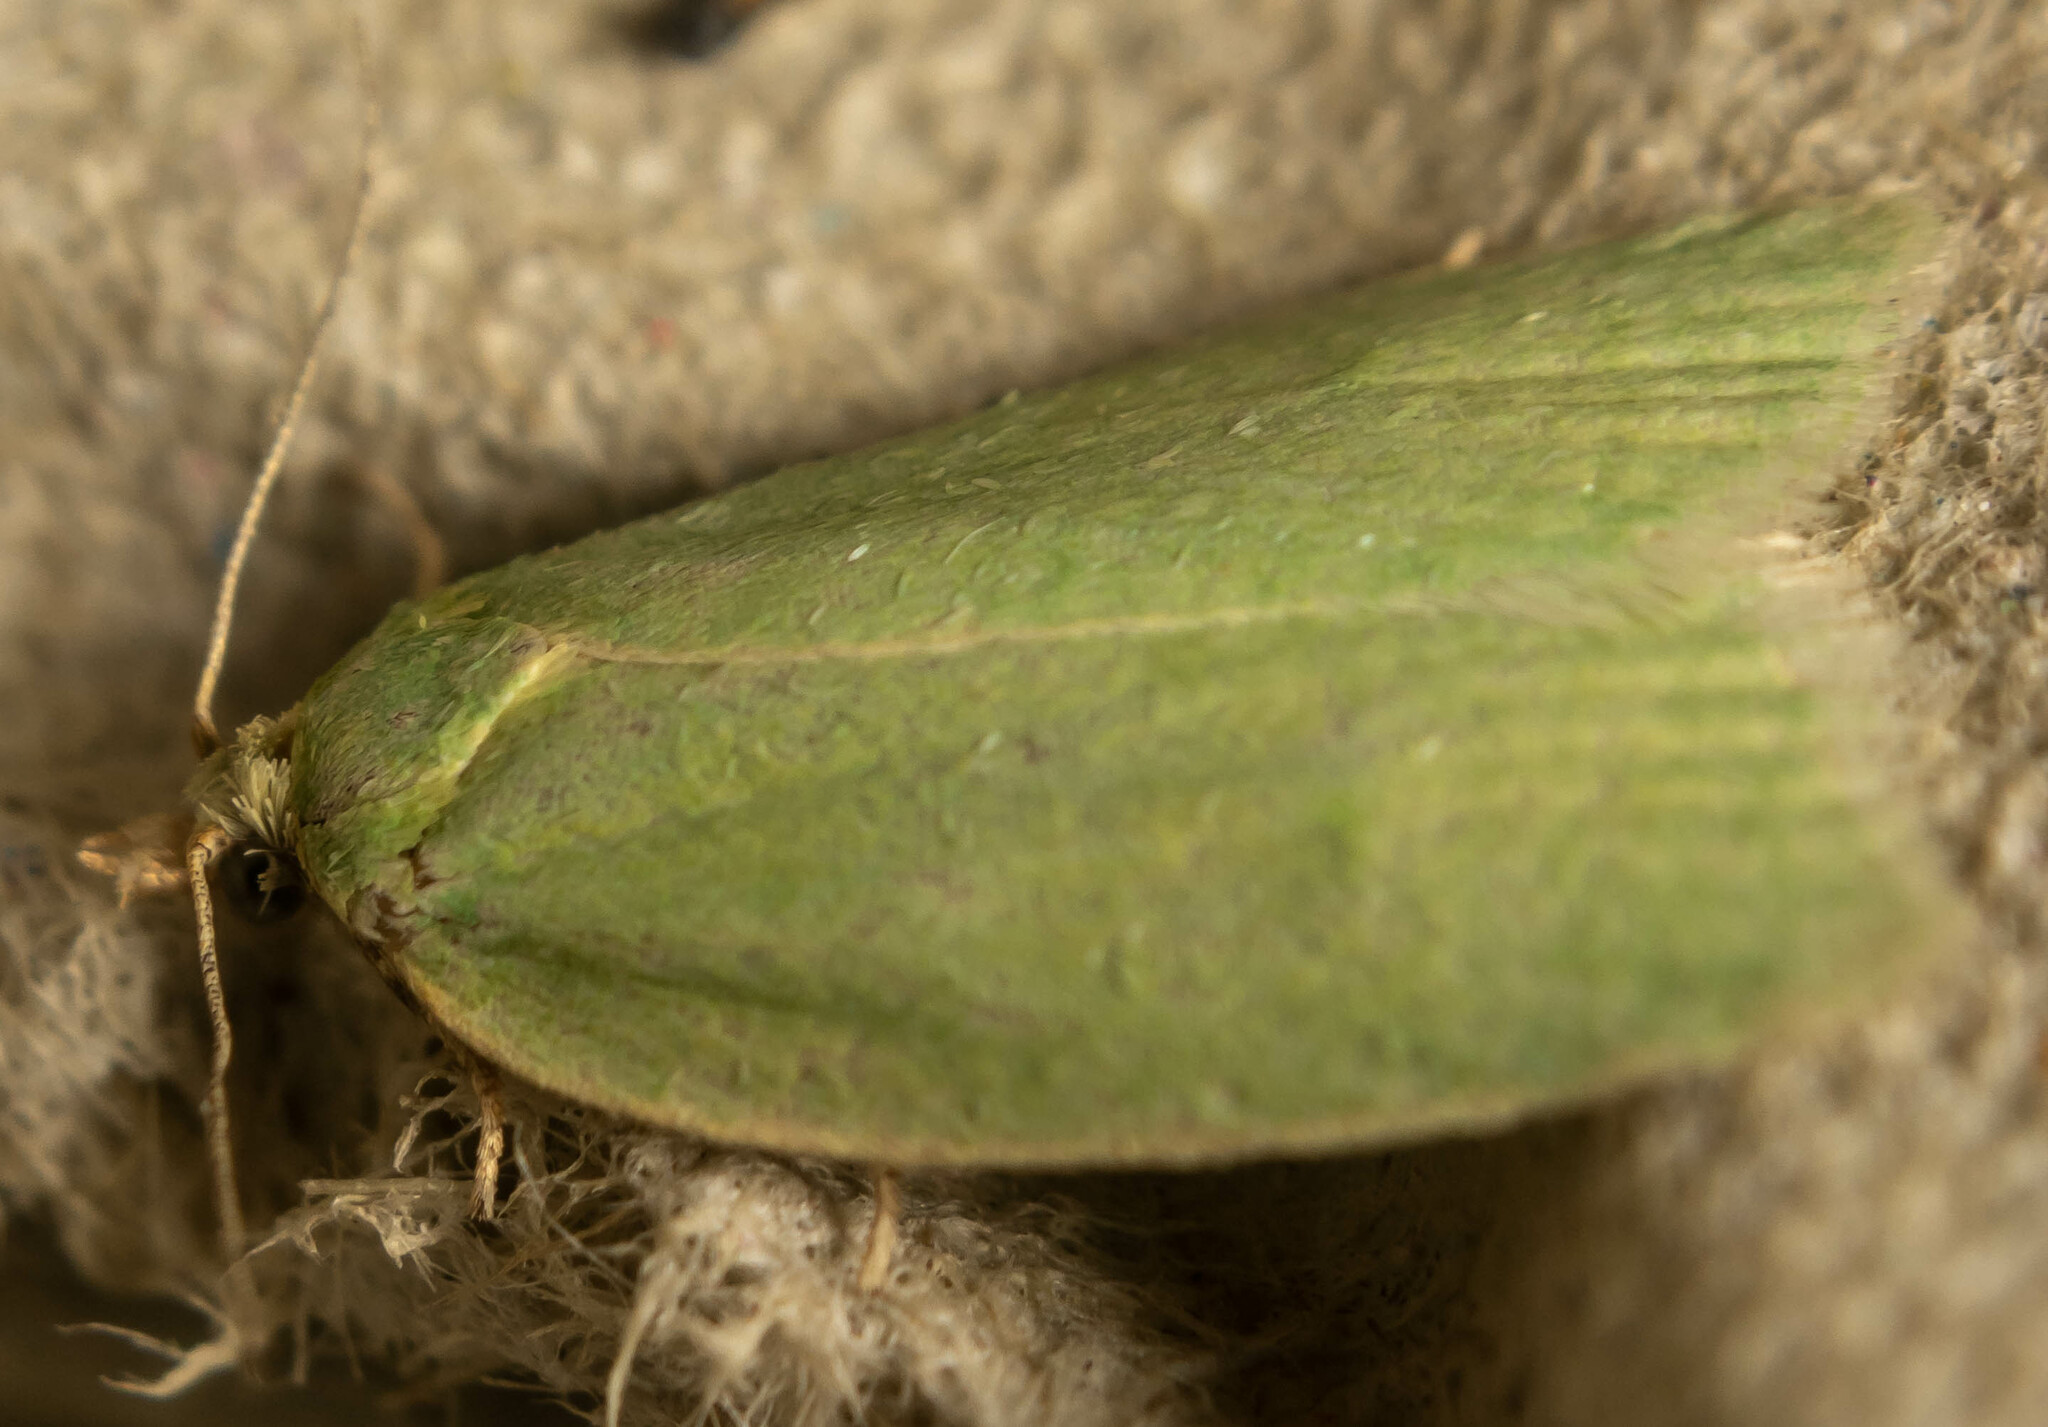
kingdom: Animalia
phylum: Arthropoda
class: Insecta
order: Lepidoptera
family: Tortricidae
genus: Tortrix
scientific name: Tortrix viridana
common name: Green oak tortrix
